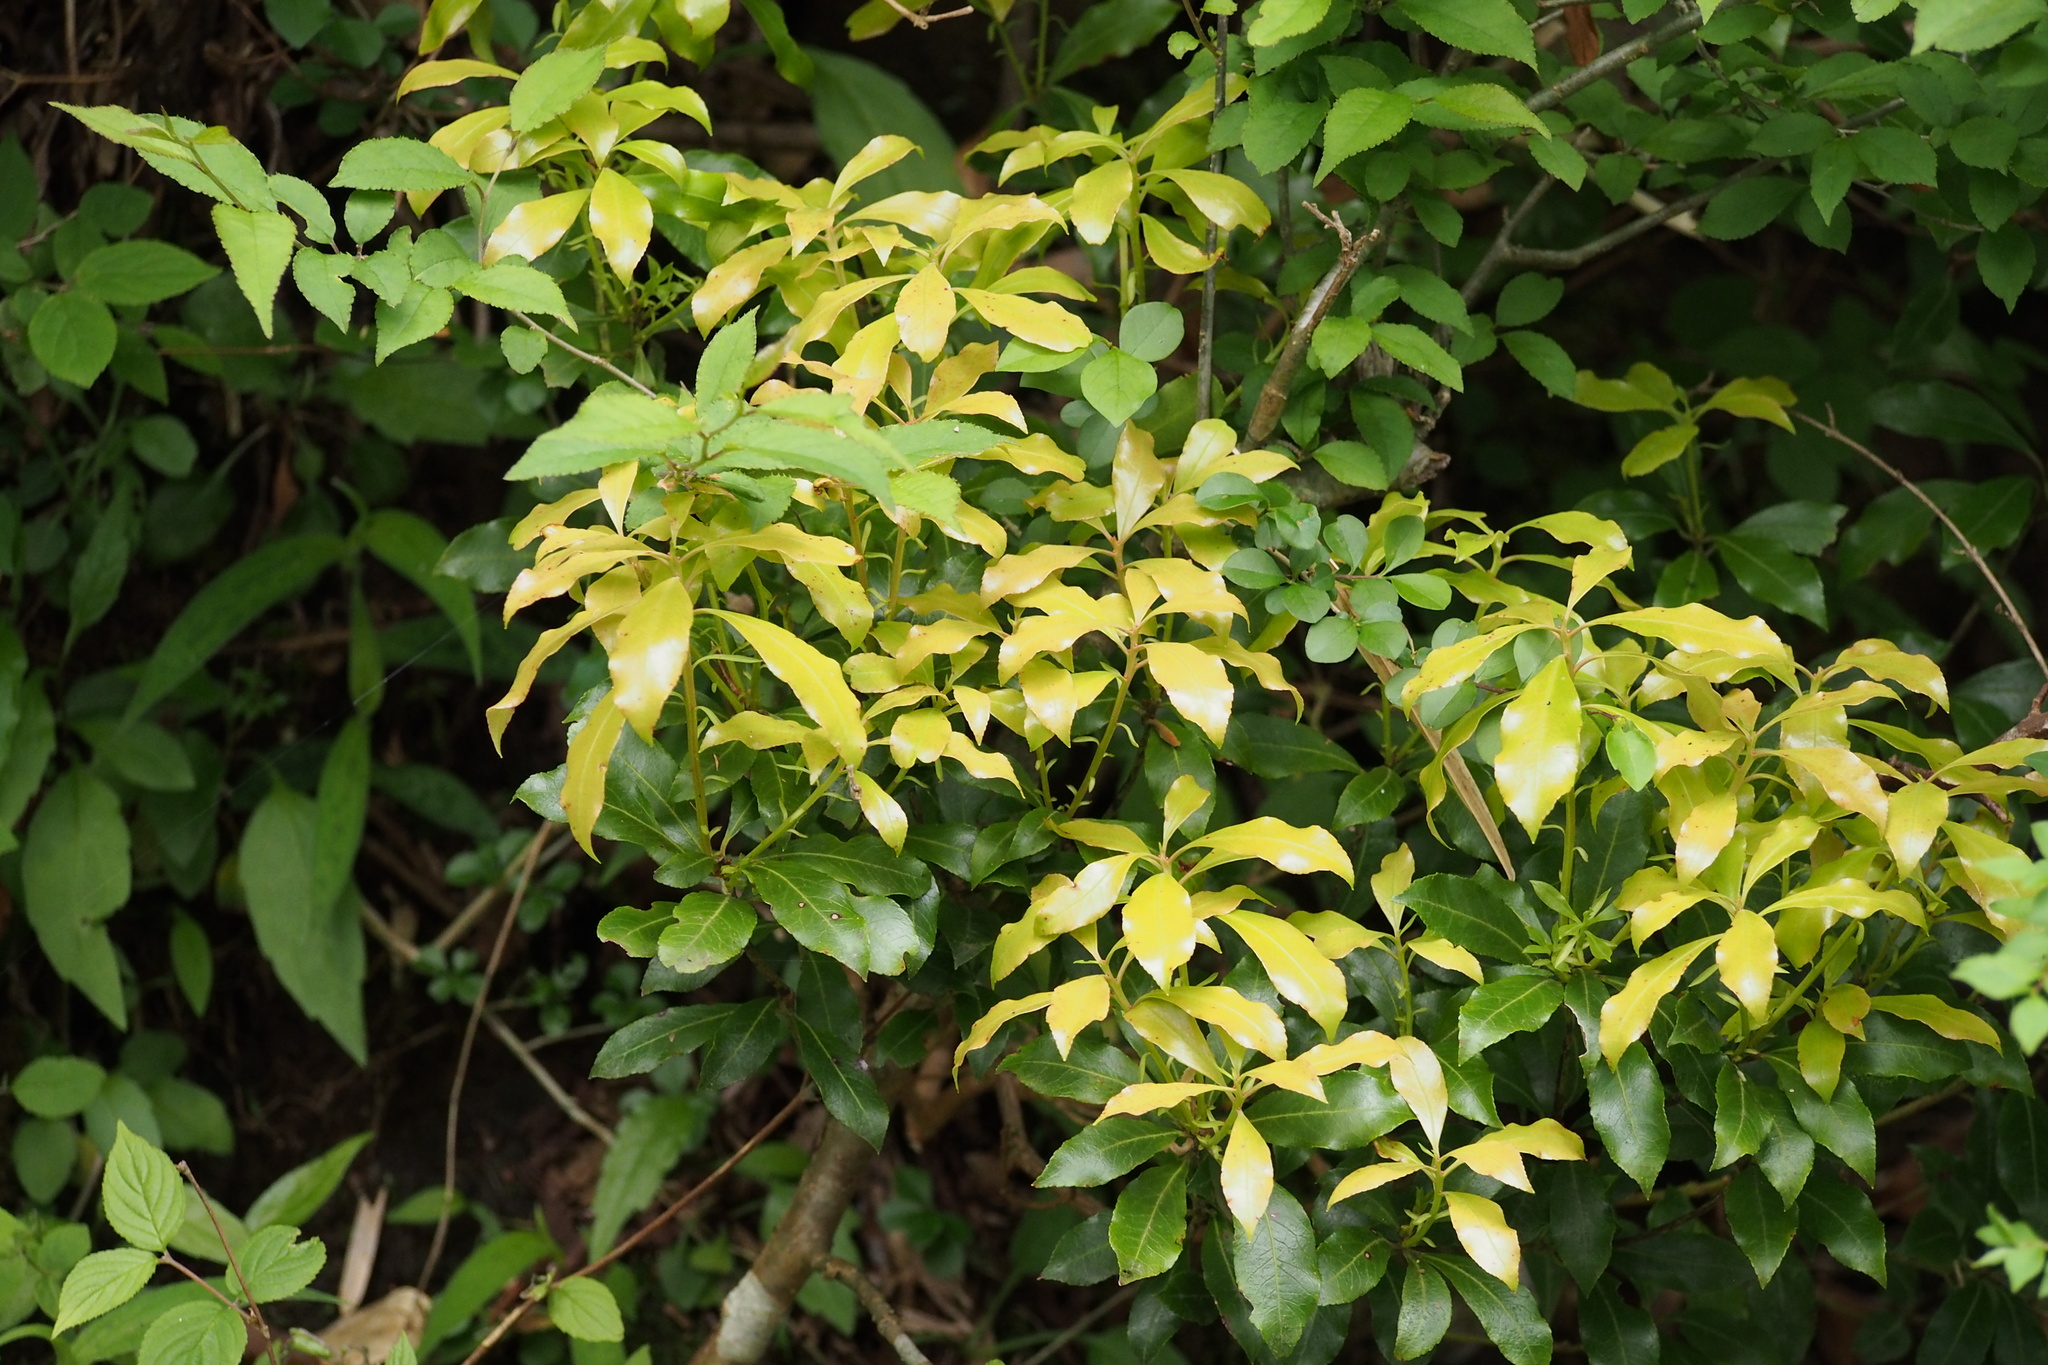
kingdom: Plantae
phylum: Tracheophyta
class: Magnoliopsida
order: Ericales
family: Ericaceae
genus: Pieris
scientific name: Pieris japonica
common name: Japanese pieris
